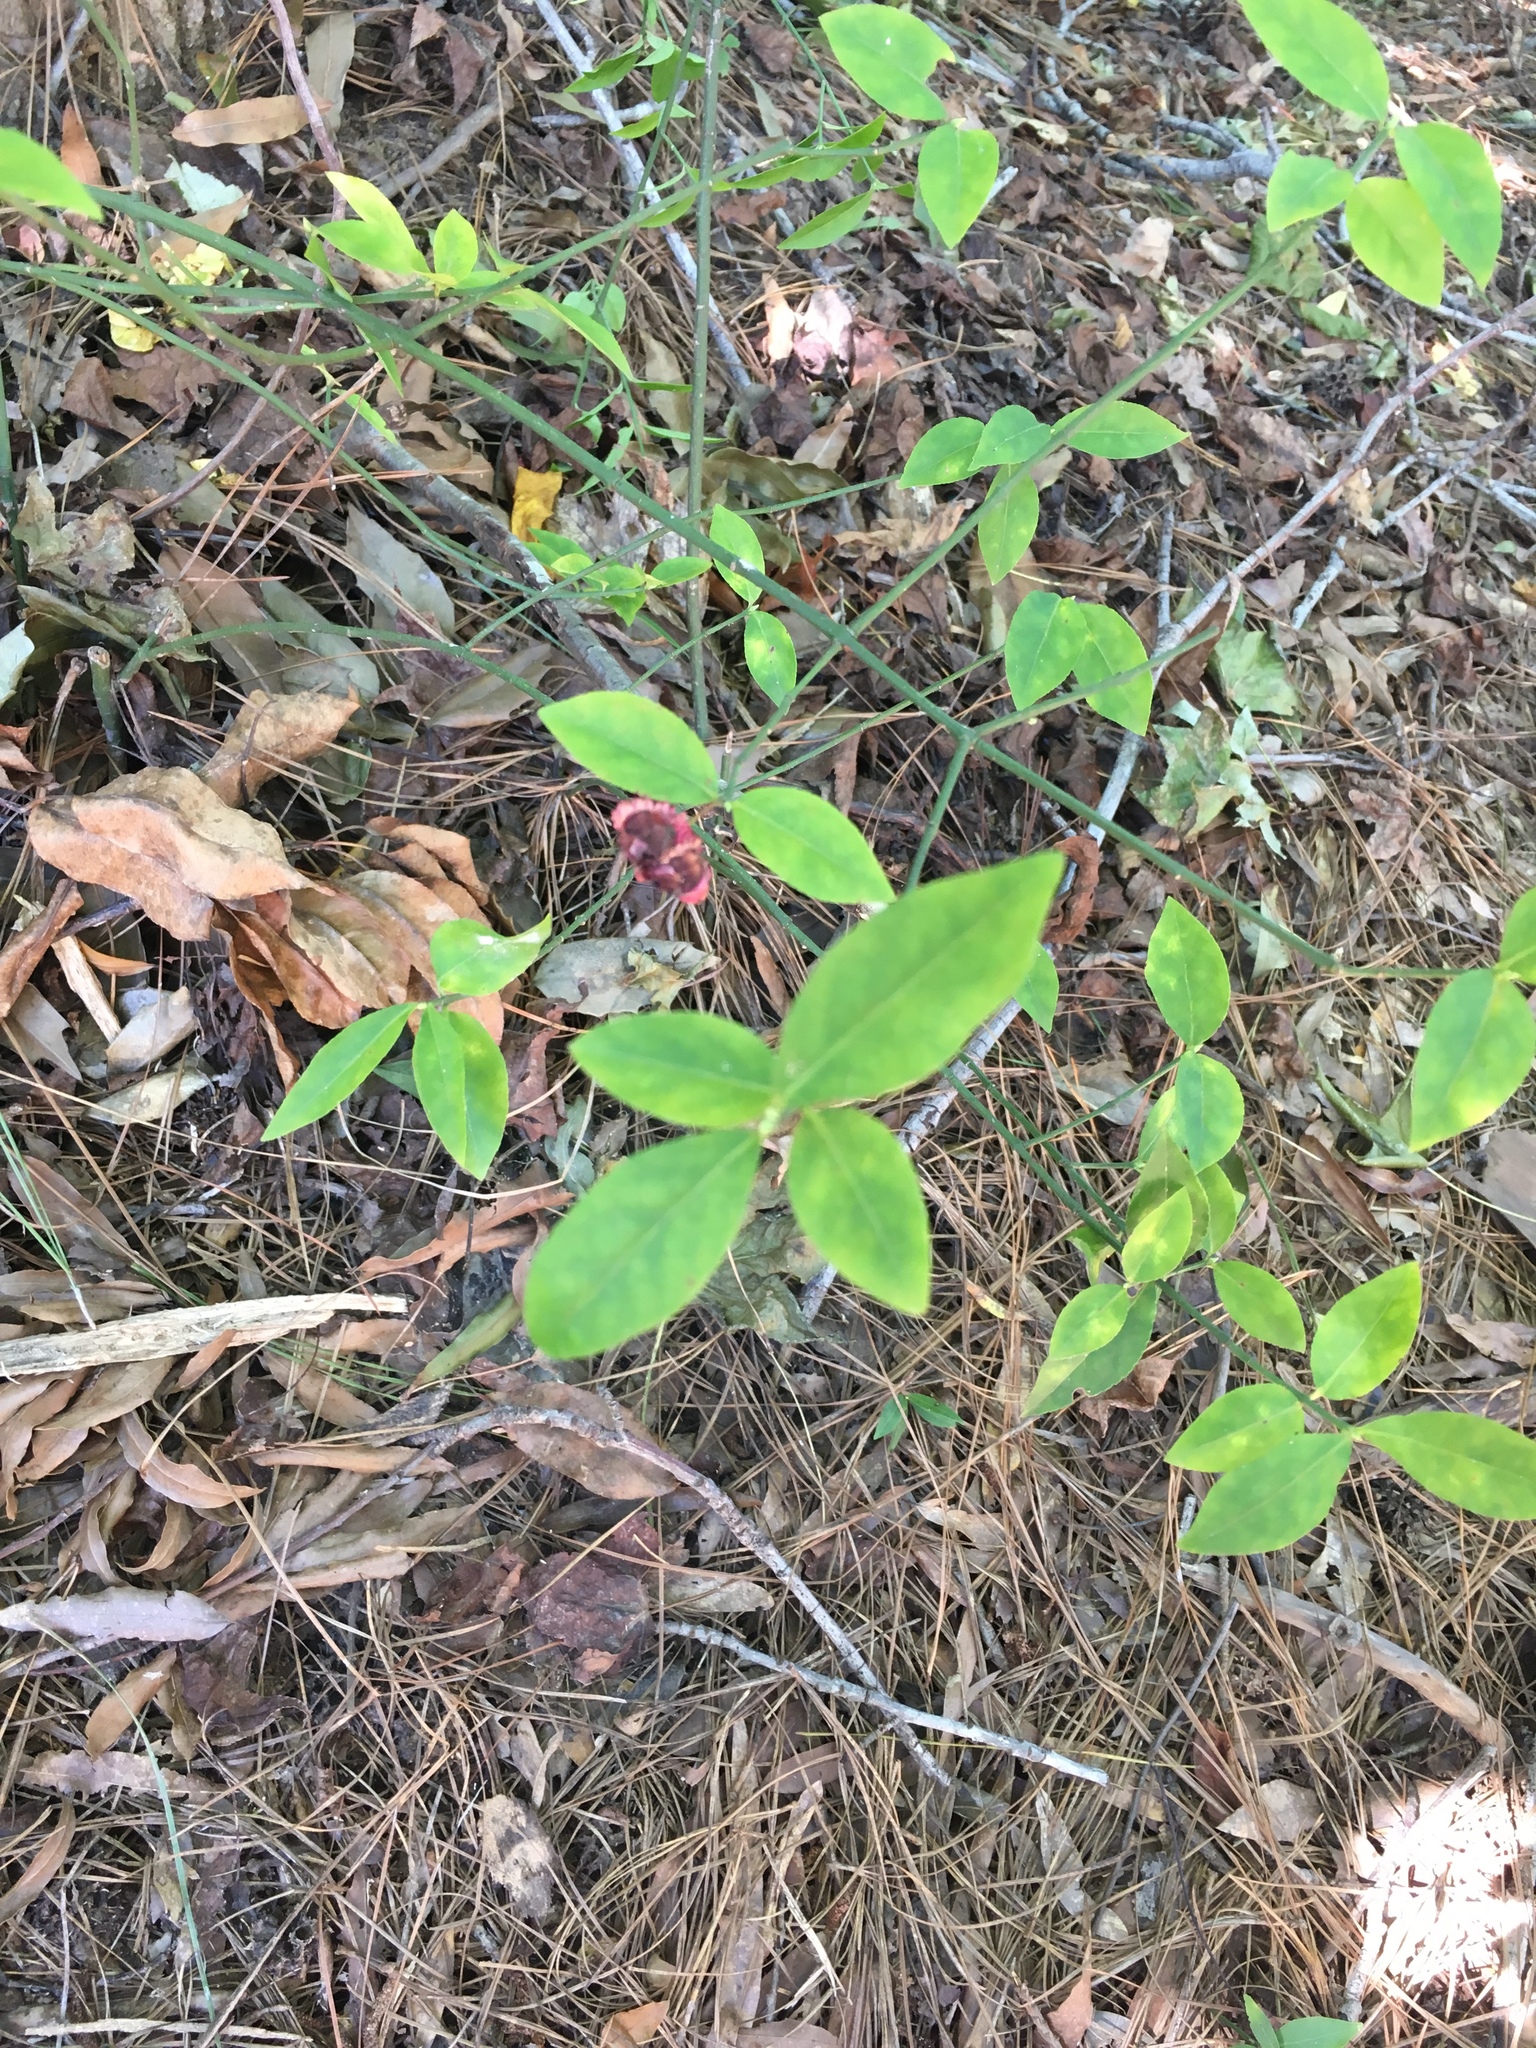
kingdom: Plantae
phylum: Tracheophyta
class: Magnoliopsida
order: Celastrales
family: Celastraceae
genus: Euonymus
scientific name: Euonymus americanus
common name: Bursting-heart
